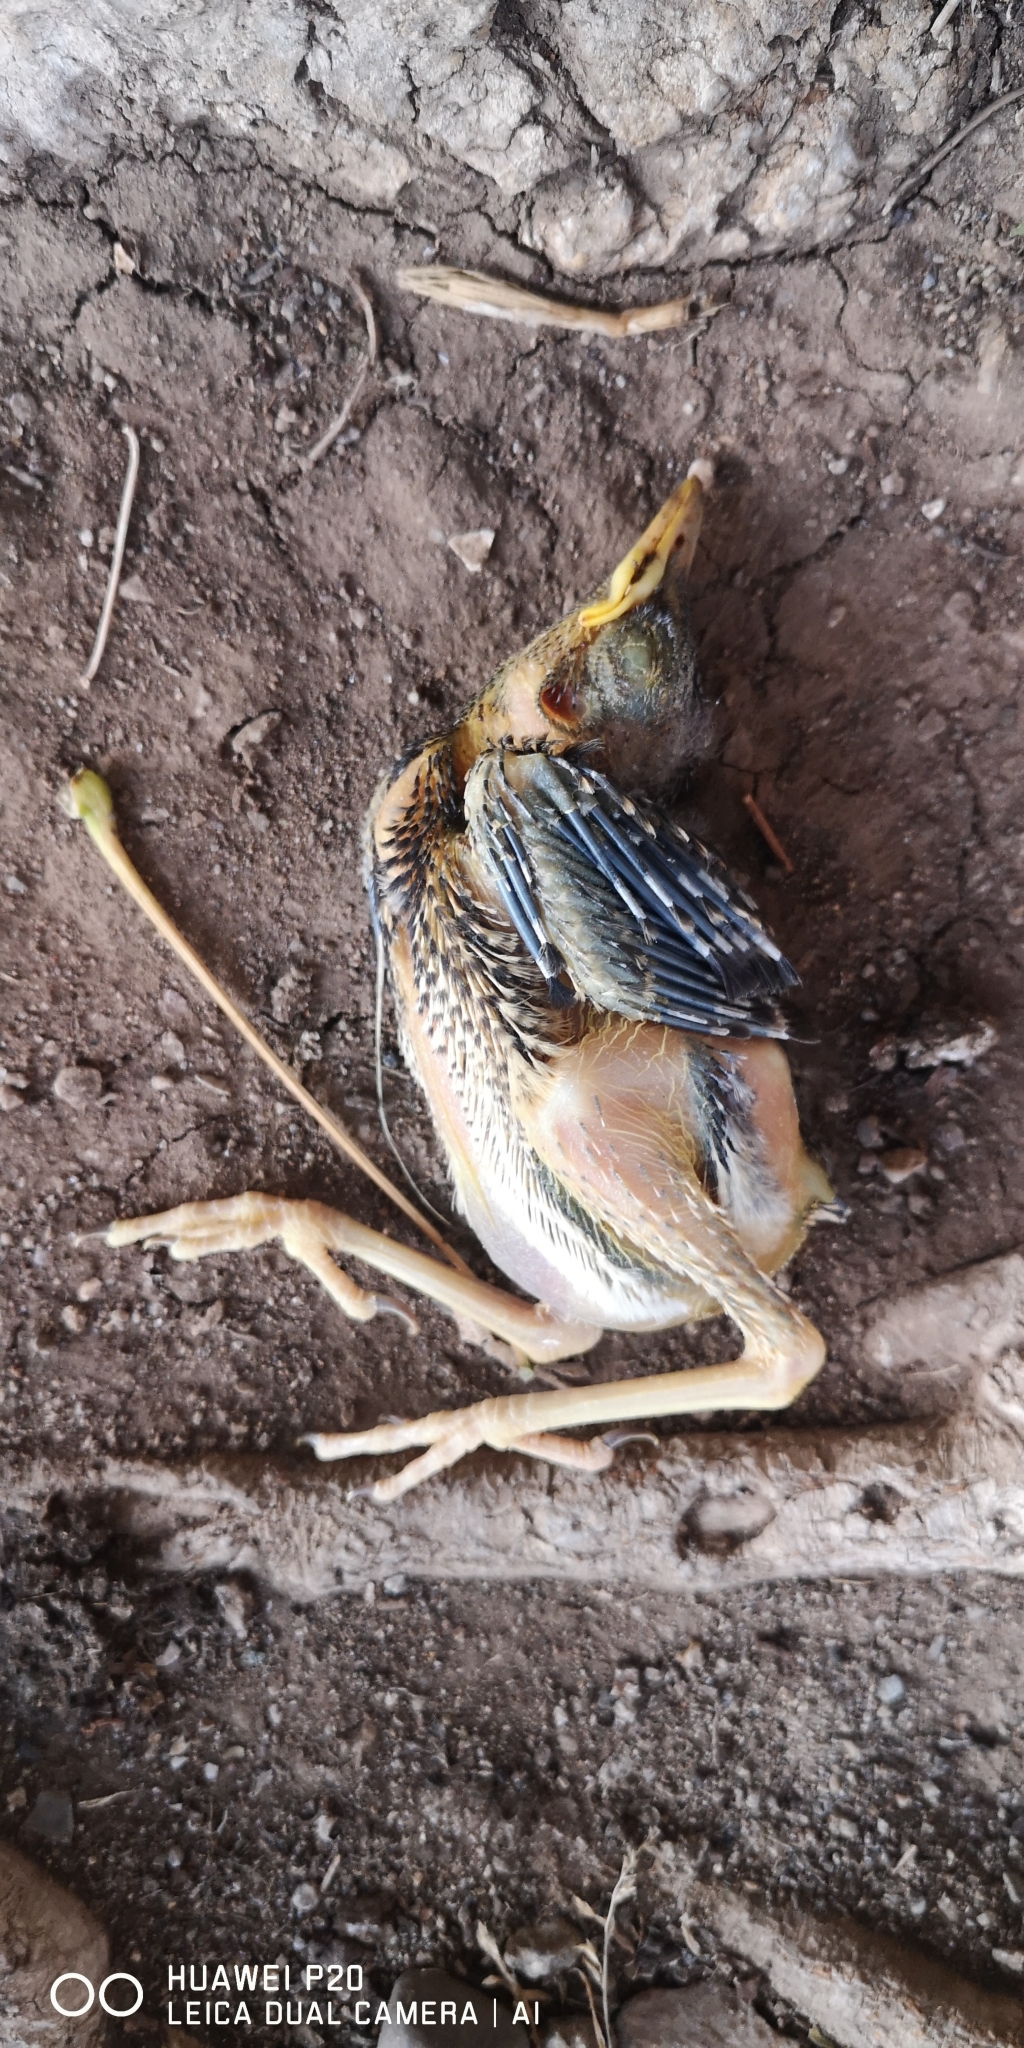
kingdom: Animalia
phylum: Chordata
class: Aves
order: Passeriformes
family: Turdidae
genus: Turdus
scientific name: Turdus falcklandii
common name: Austral thrush
